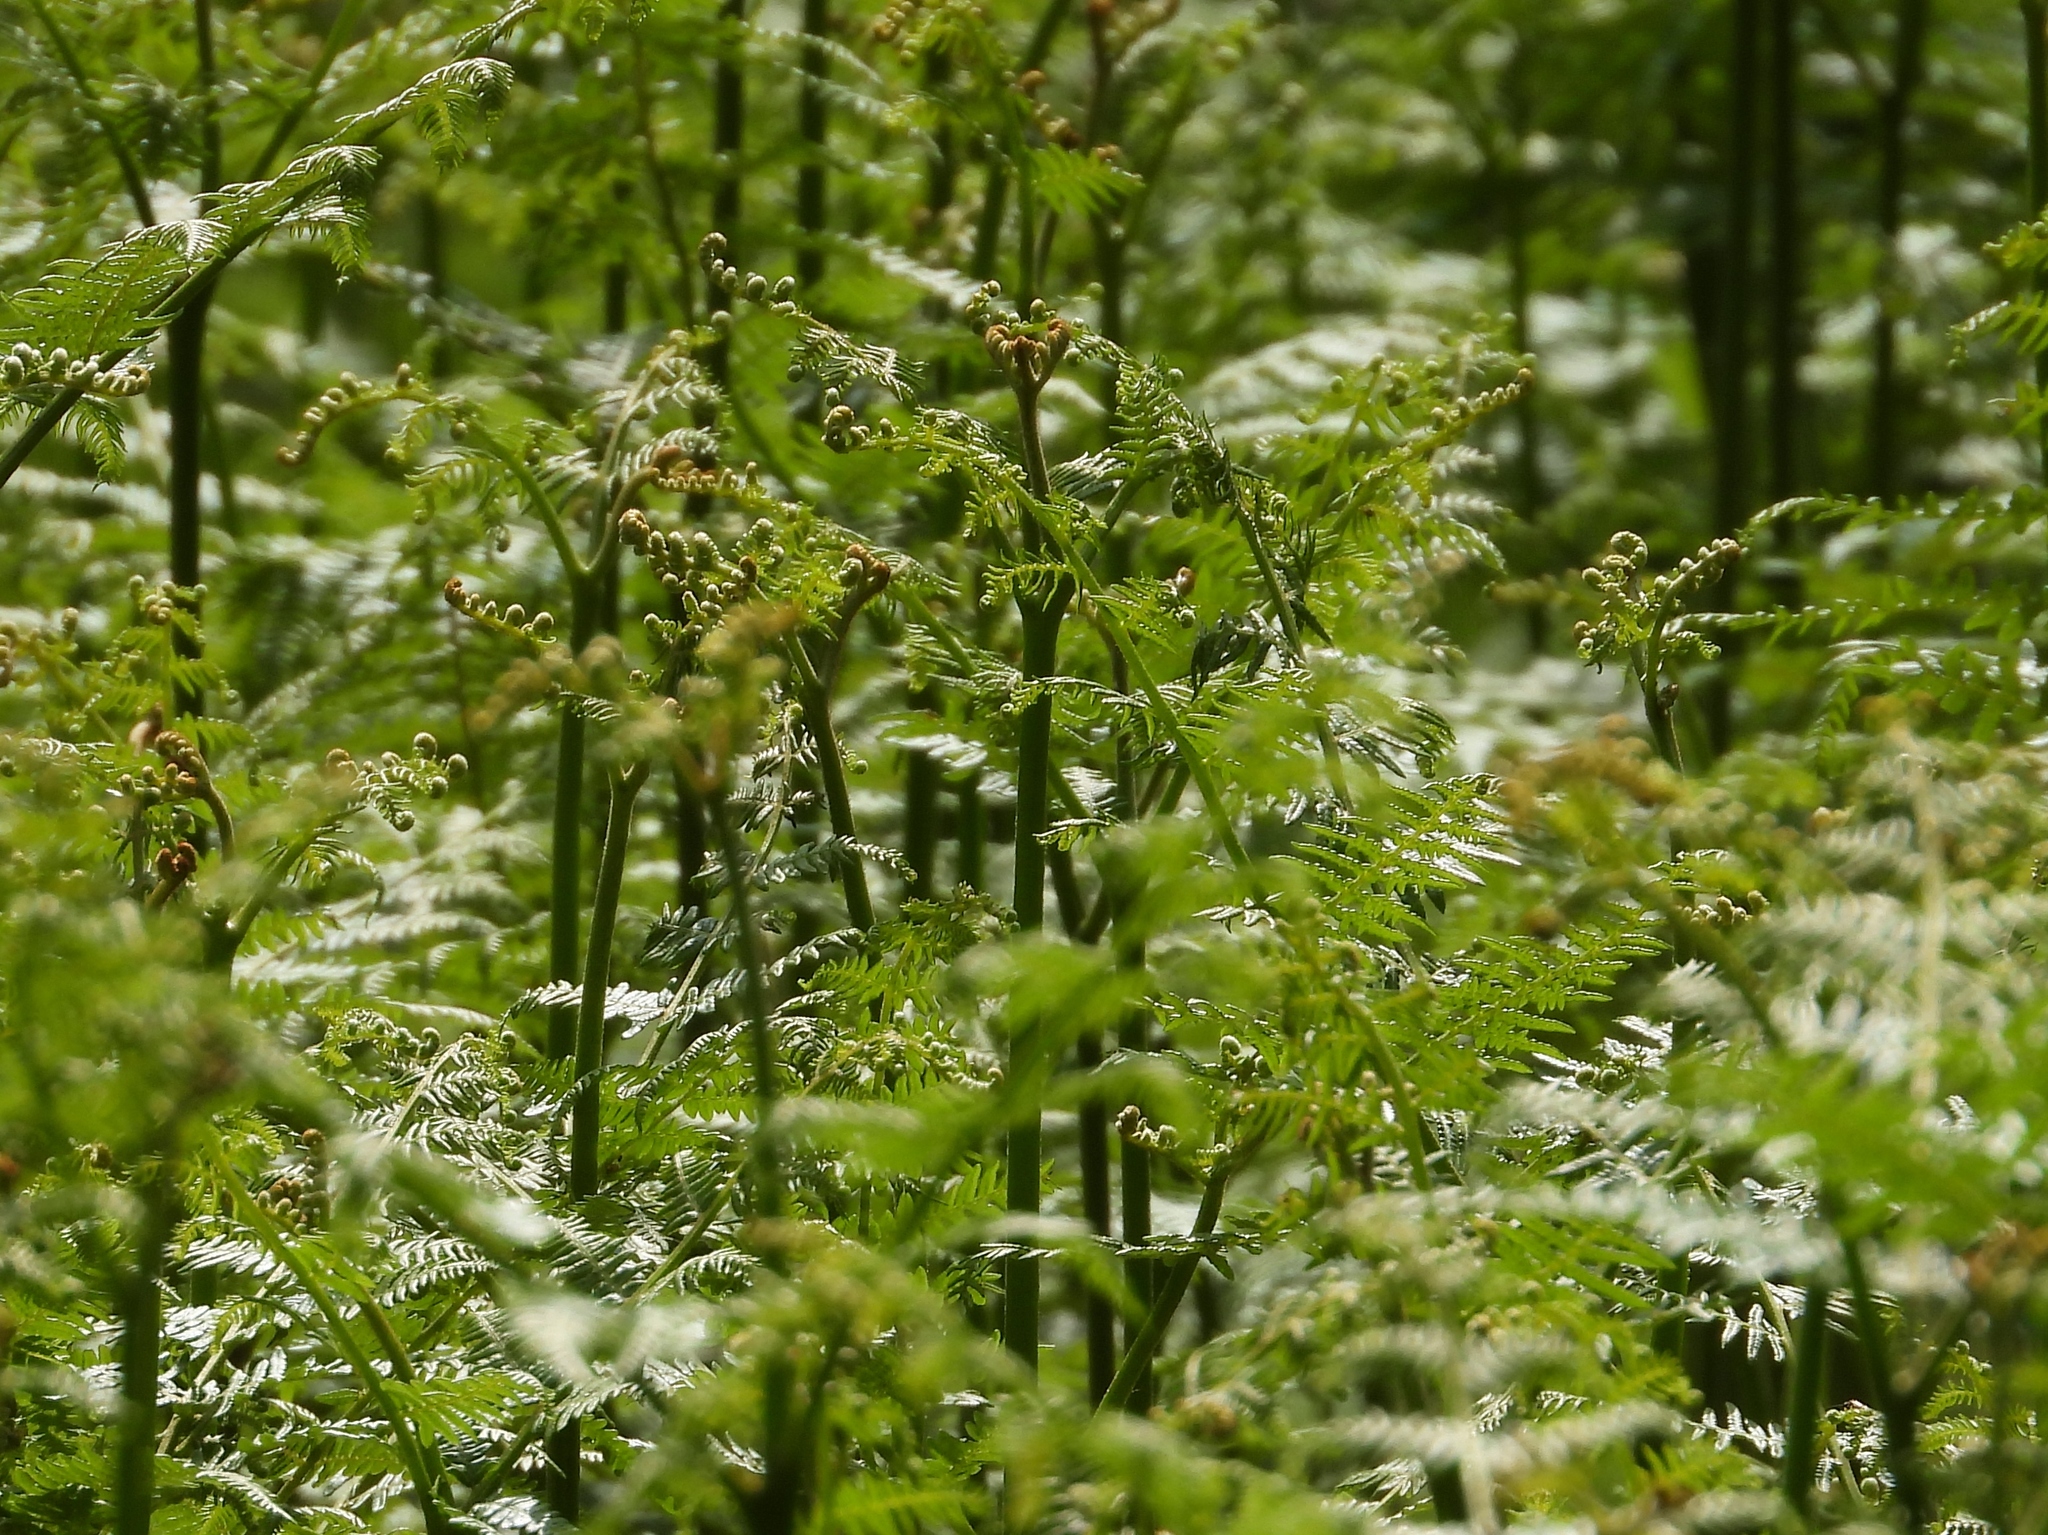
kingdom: Plantae
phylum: Tracheophyta
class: Polypodiopsida
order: Polypodiales
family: Dennstaedtiaceae
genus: Pteridium
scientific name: Pteridium aquilinum
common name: Bracken
